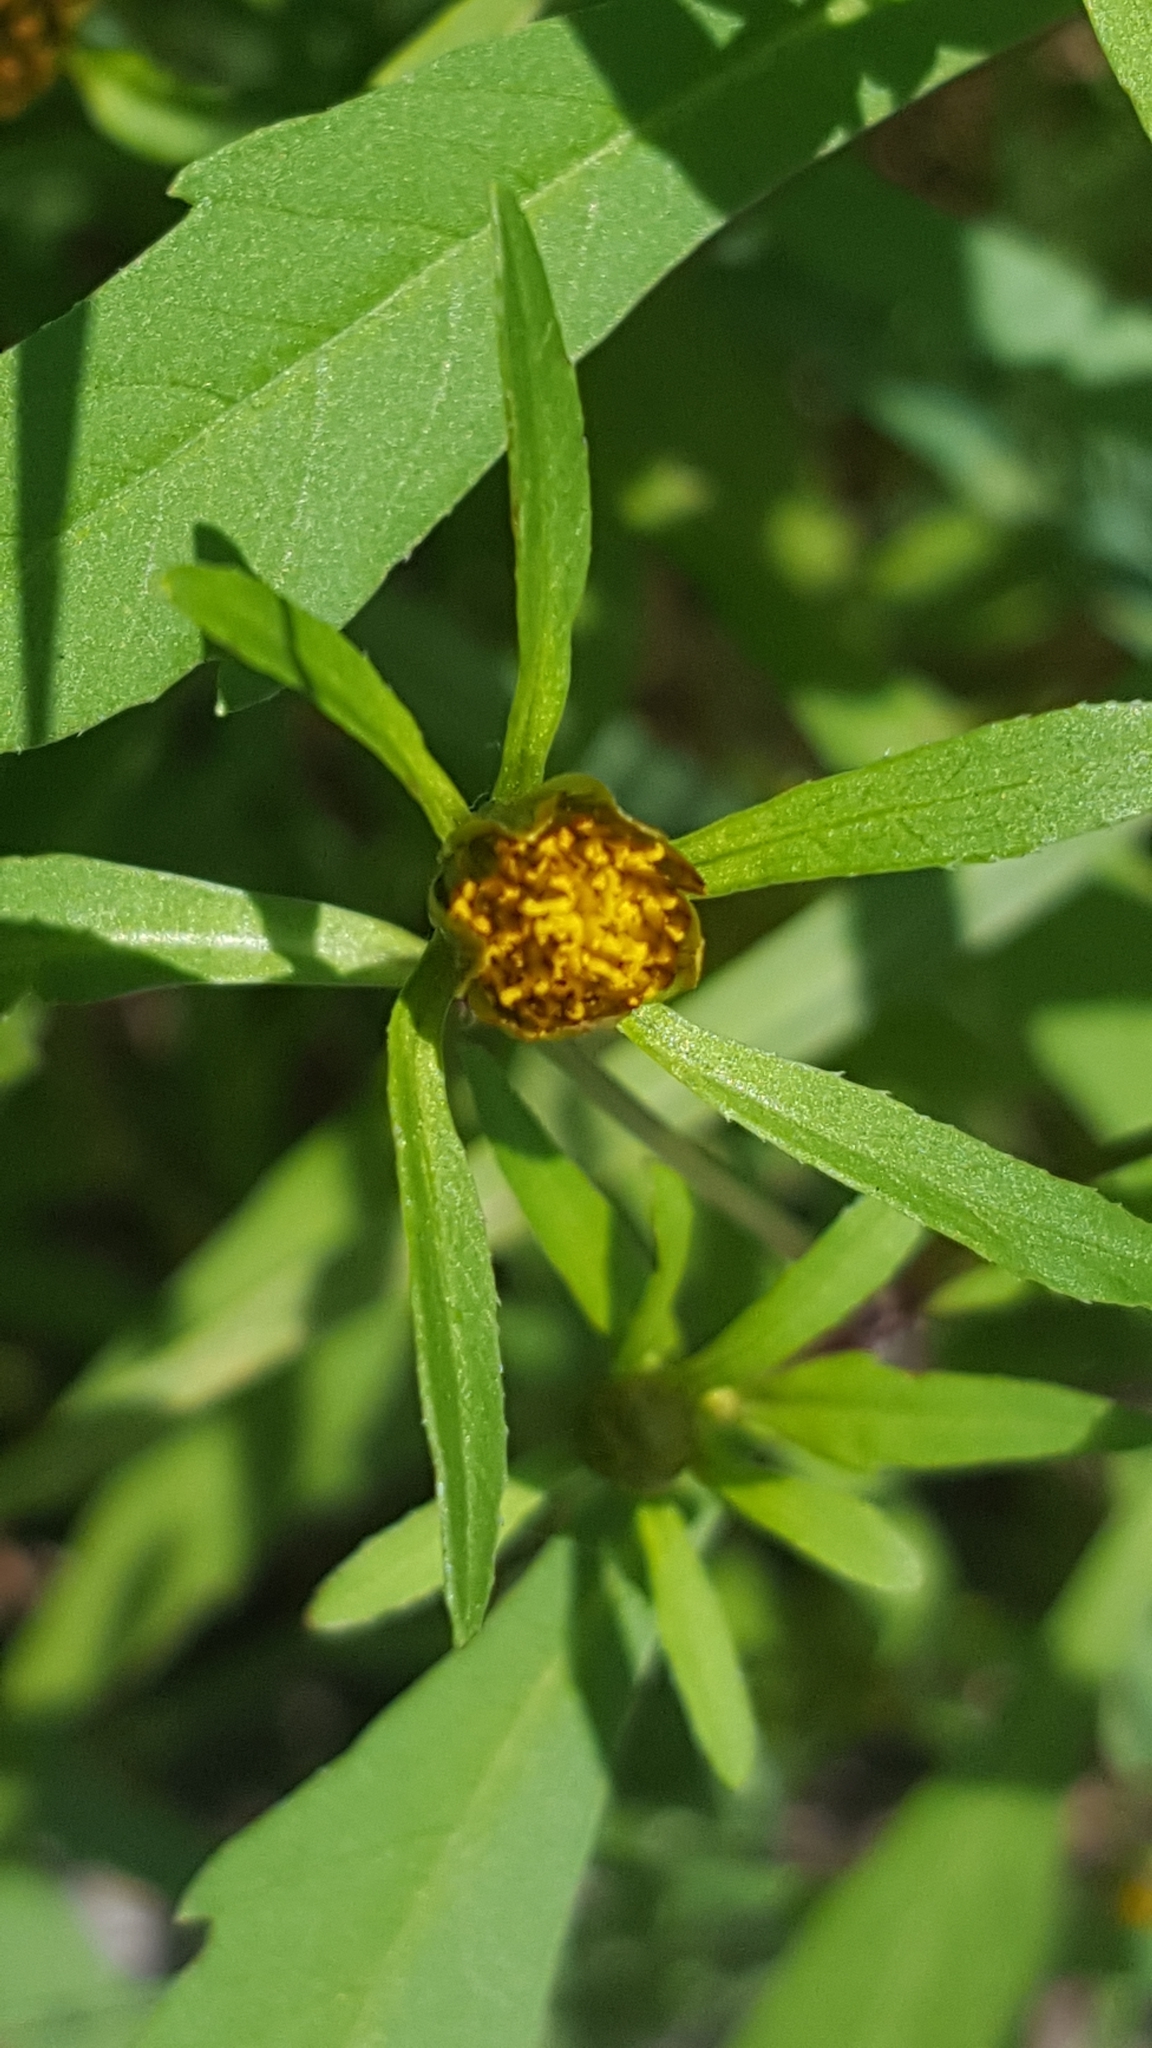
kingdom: Plantae
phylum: Tracheophyta
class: Magnoliopsida
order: Asterales
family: Asteraceae
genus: Bidens
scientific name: Bidens connata
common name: London bur-marigold
